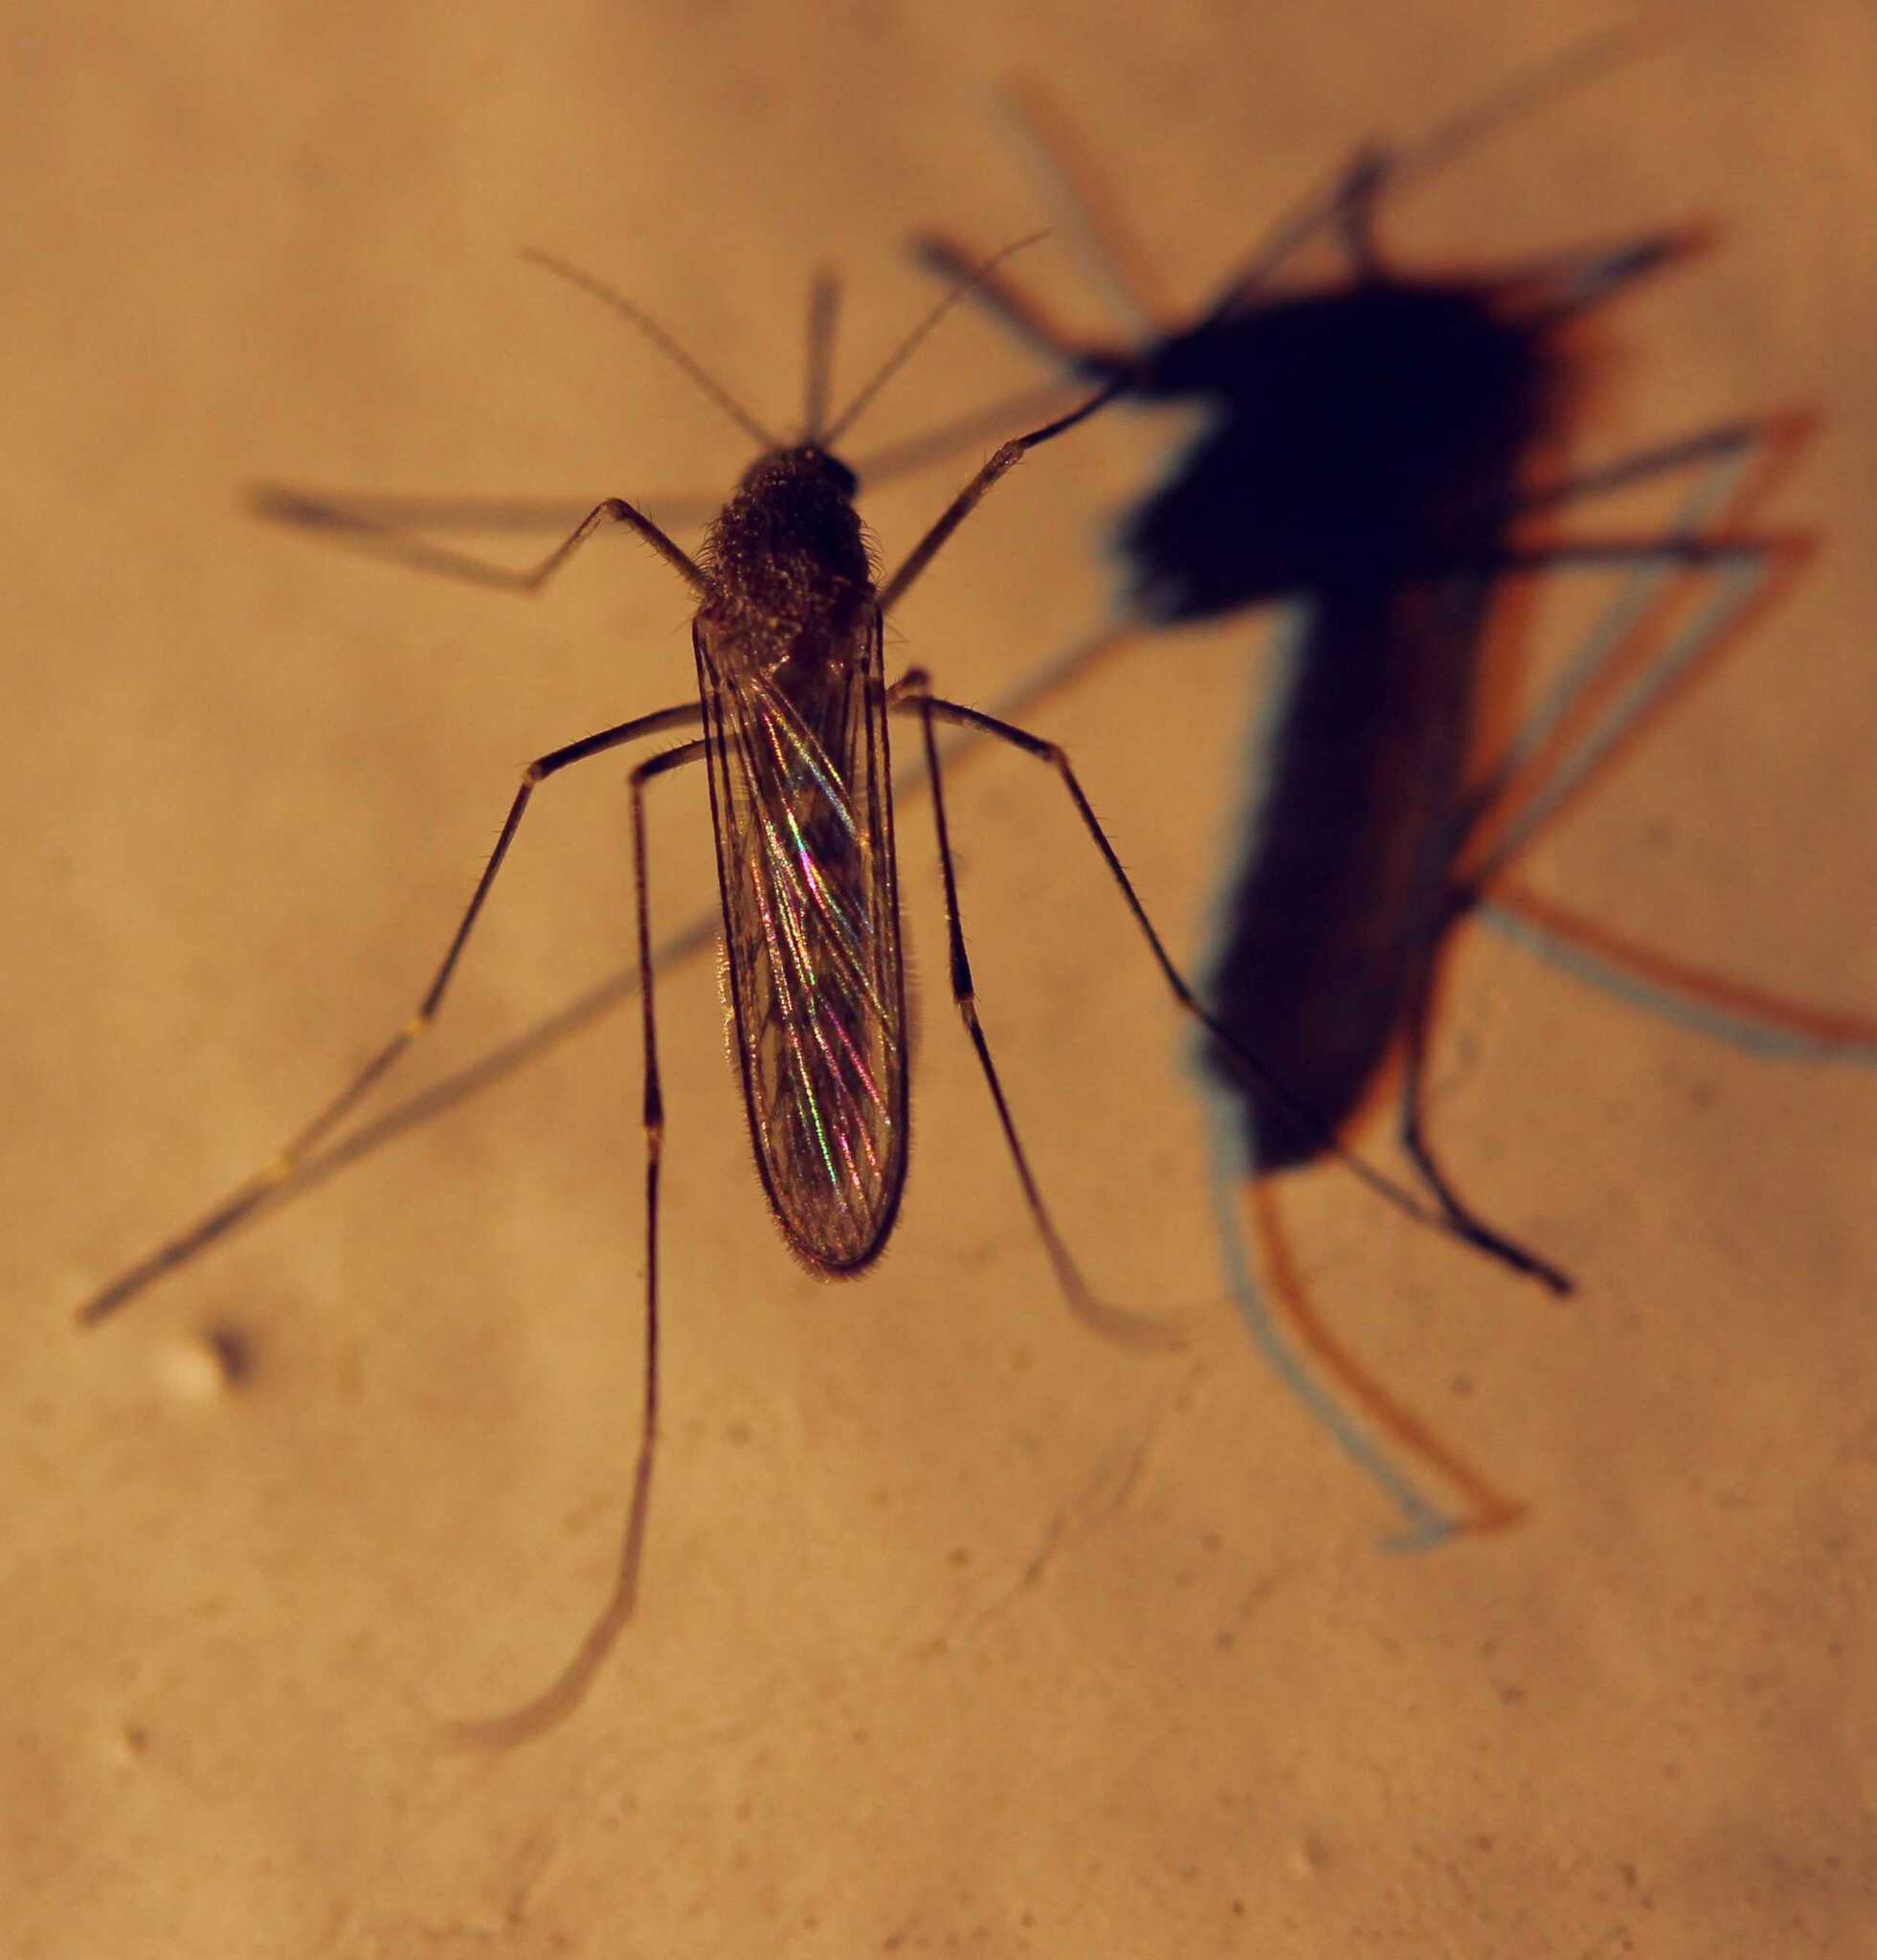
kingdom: Animalia
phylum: Arthropoda
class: Insecta
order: Diptera
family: Culicidae
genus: Culex
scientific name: Culex tarsalis
